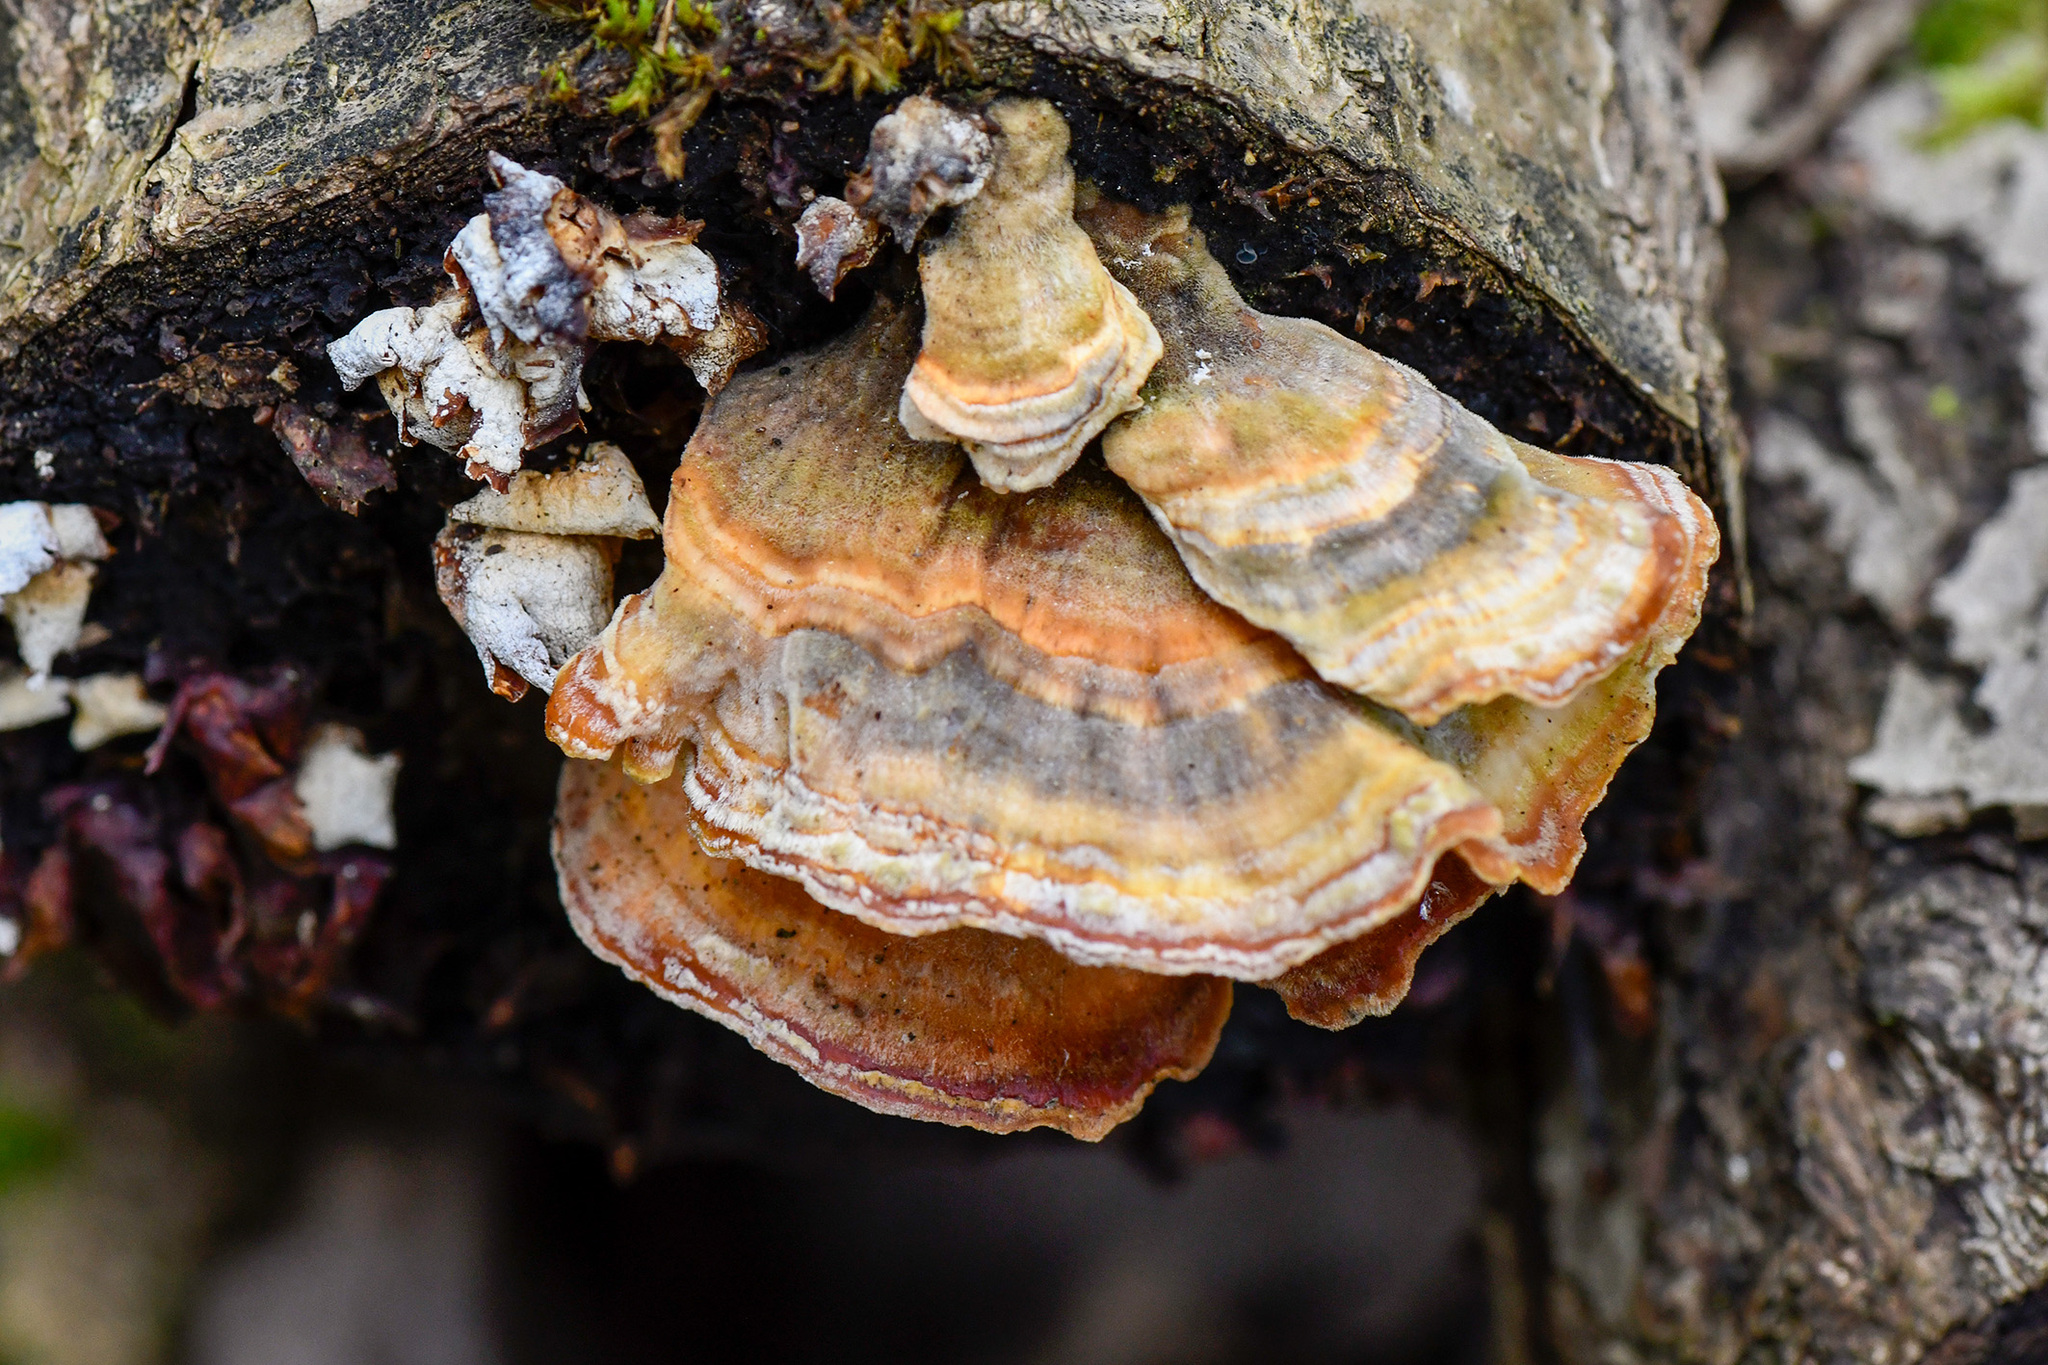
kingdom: Fungi
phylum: Basidiomycota
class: Agaricomycetes
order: Polyporales
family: Polyporaceae
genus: Trametes
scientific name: Trametes versicolor
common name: Turkeytail
